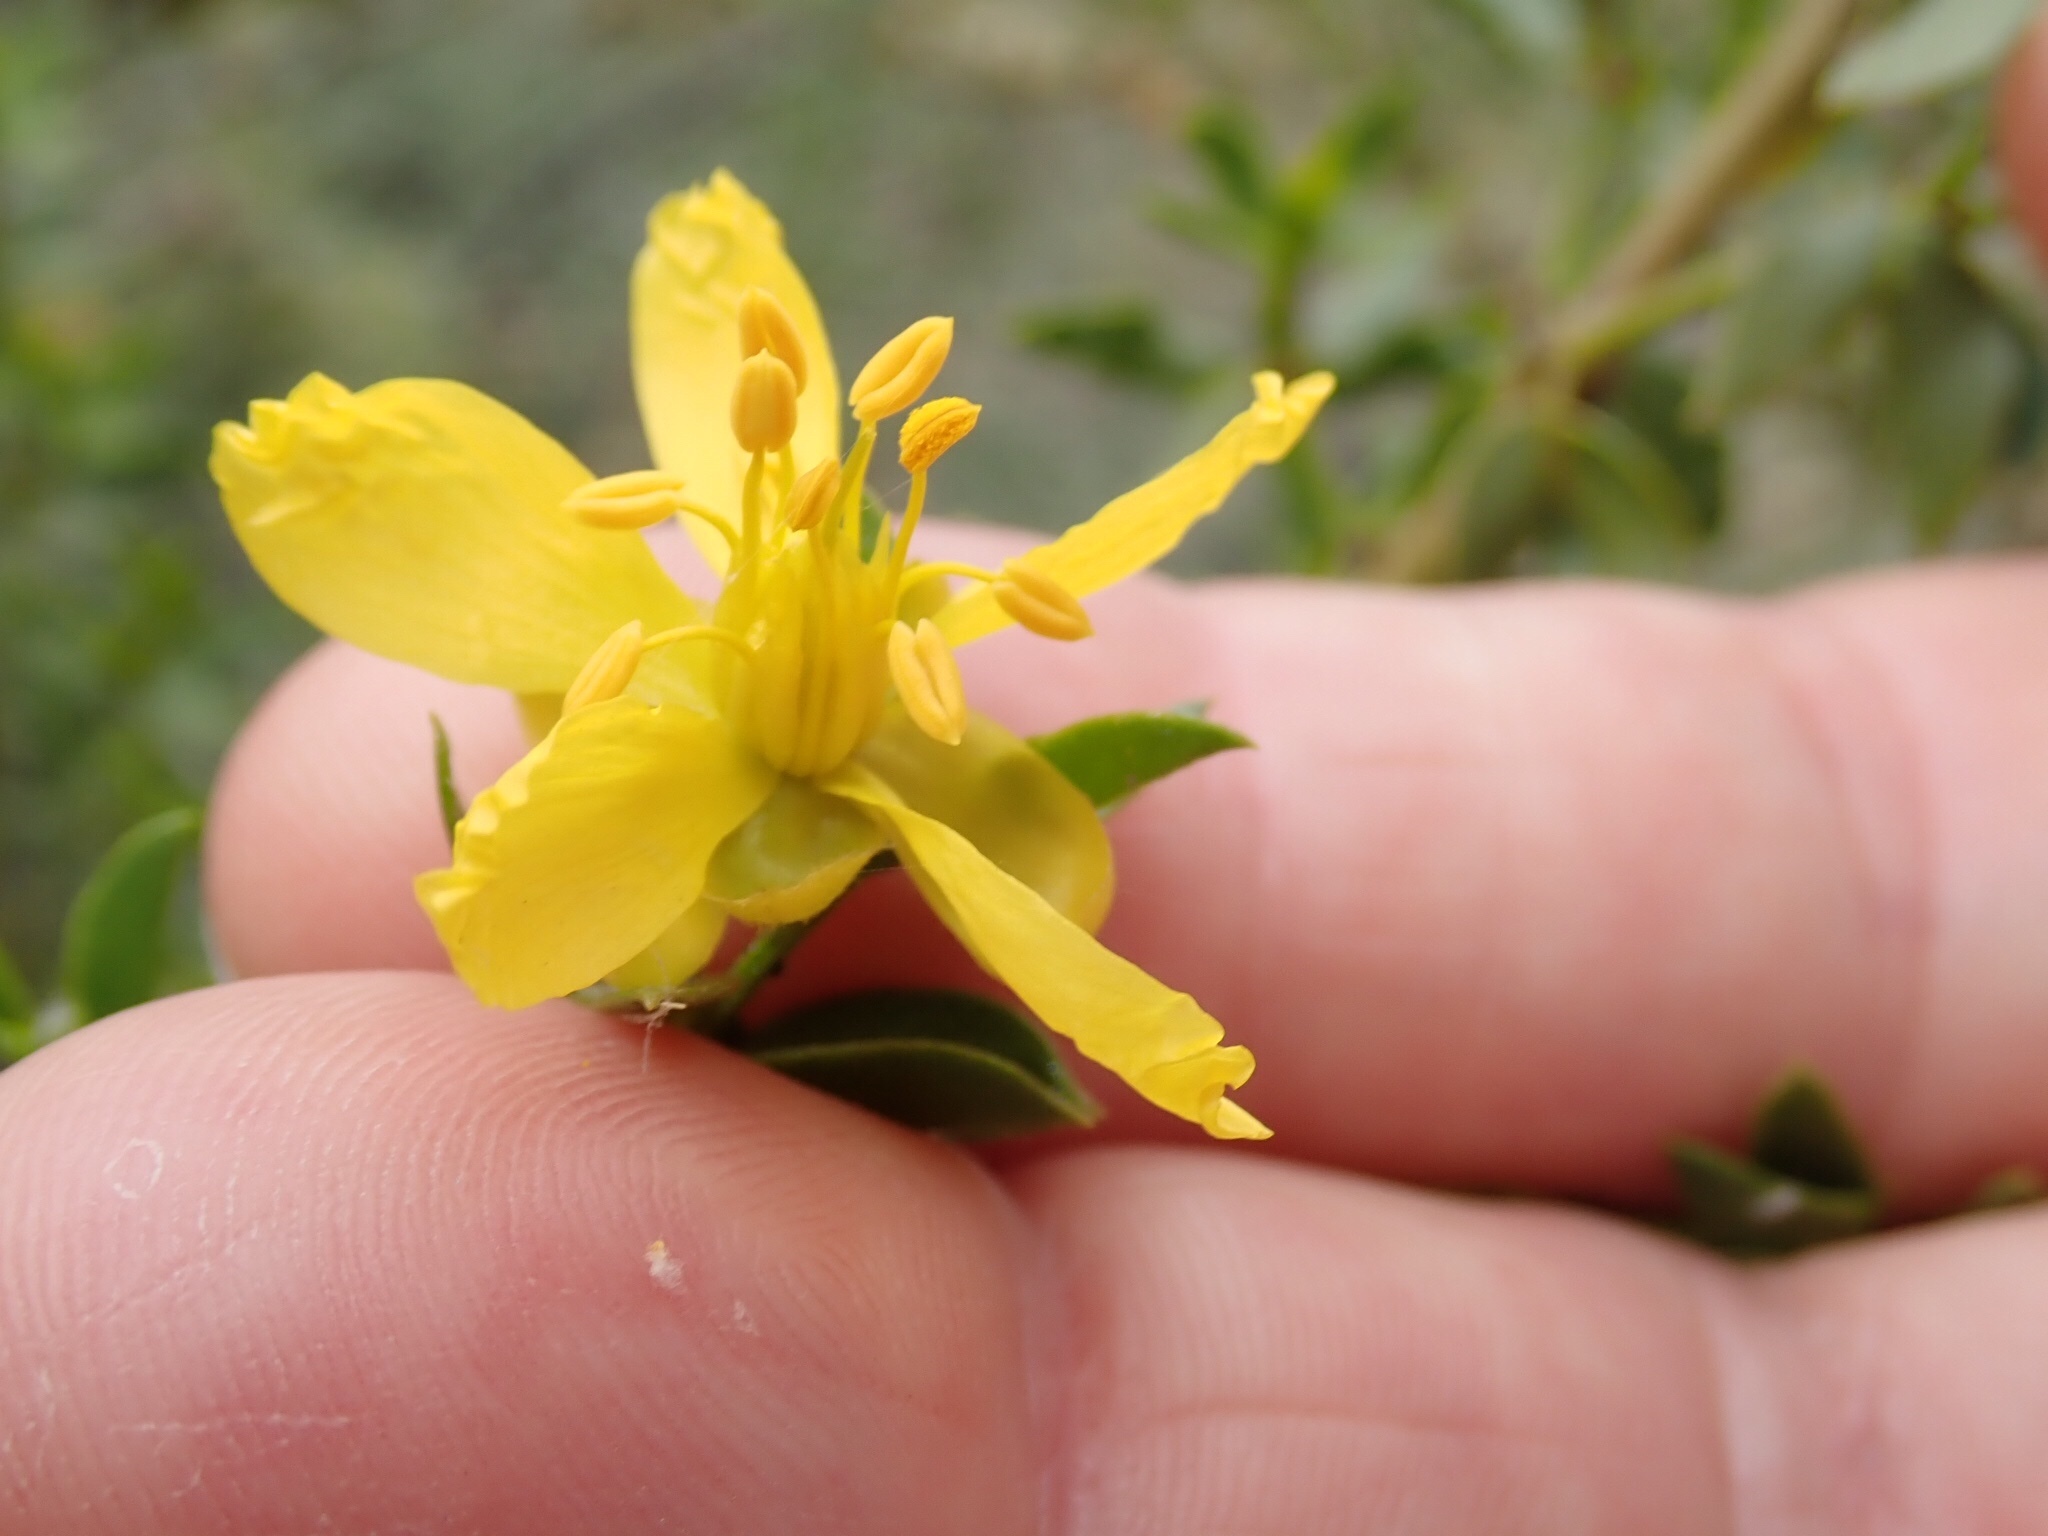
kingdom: Plantae
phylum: Tracheophyta
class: Magnoliopsida
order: Zygophyllales
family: Zygophyllaceae
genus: Larrea
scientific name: Larrea tridentata
